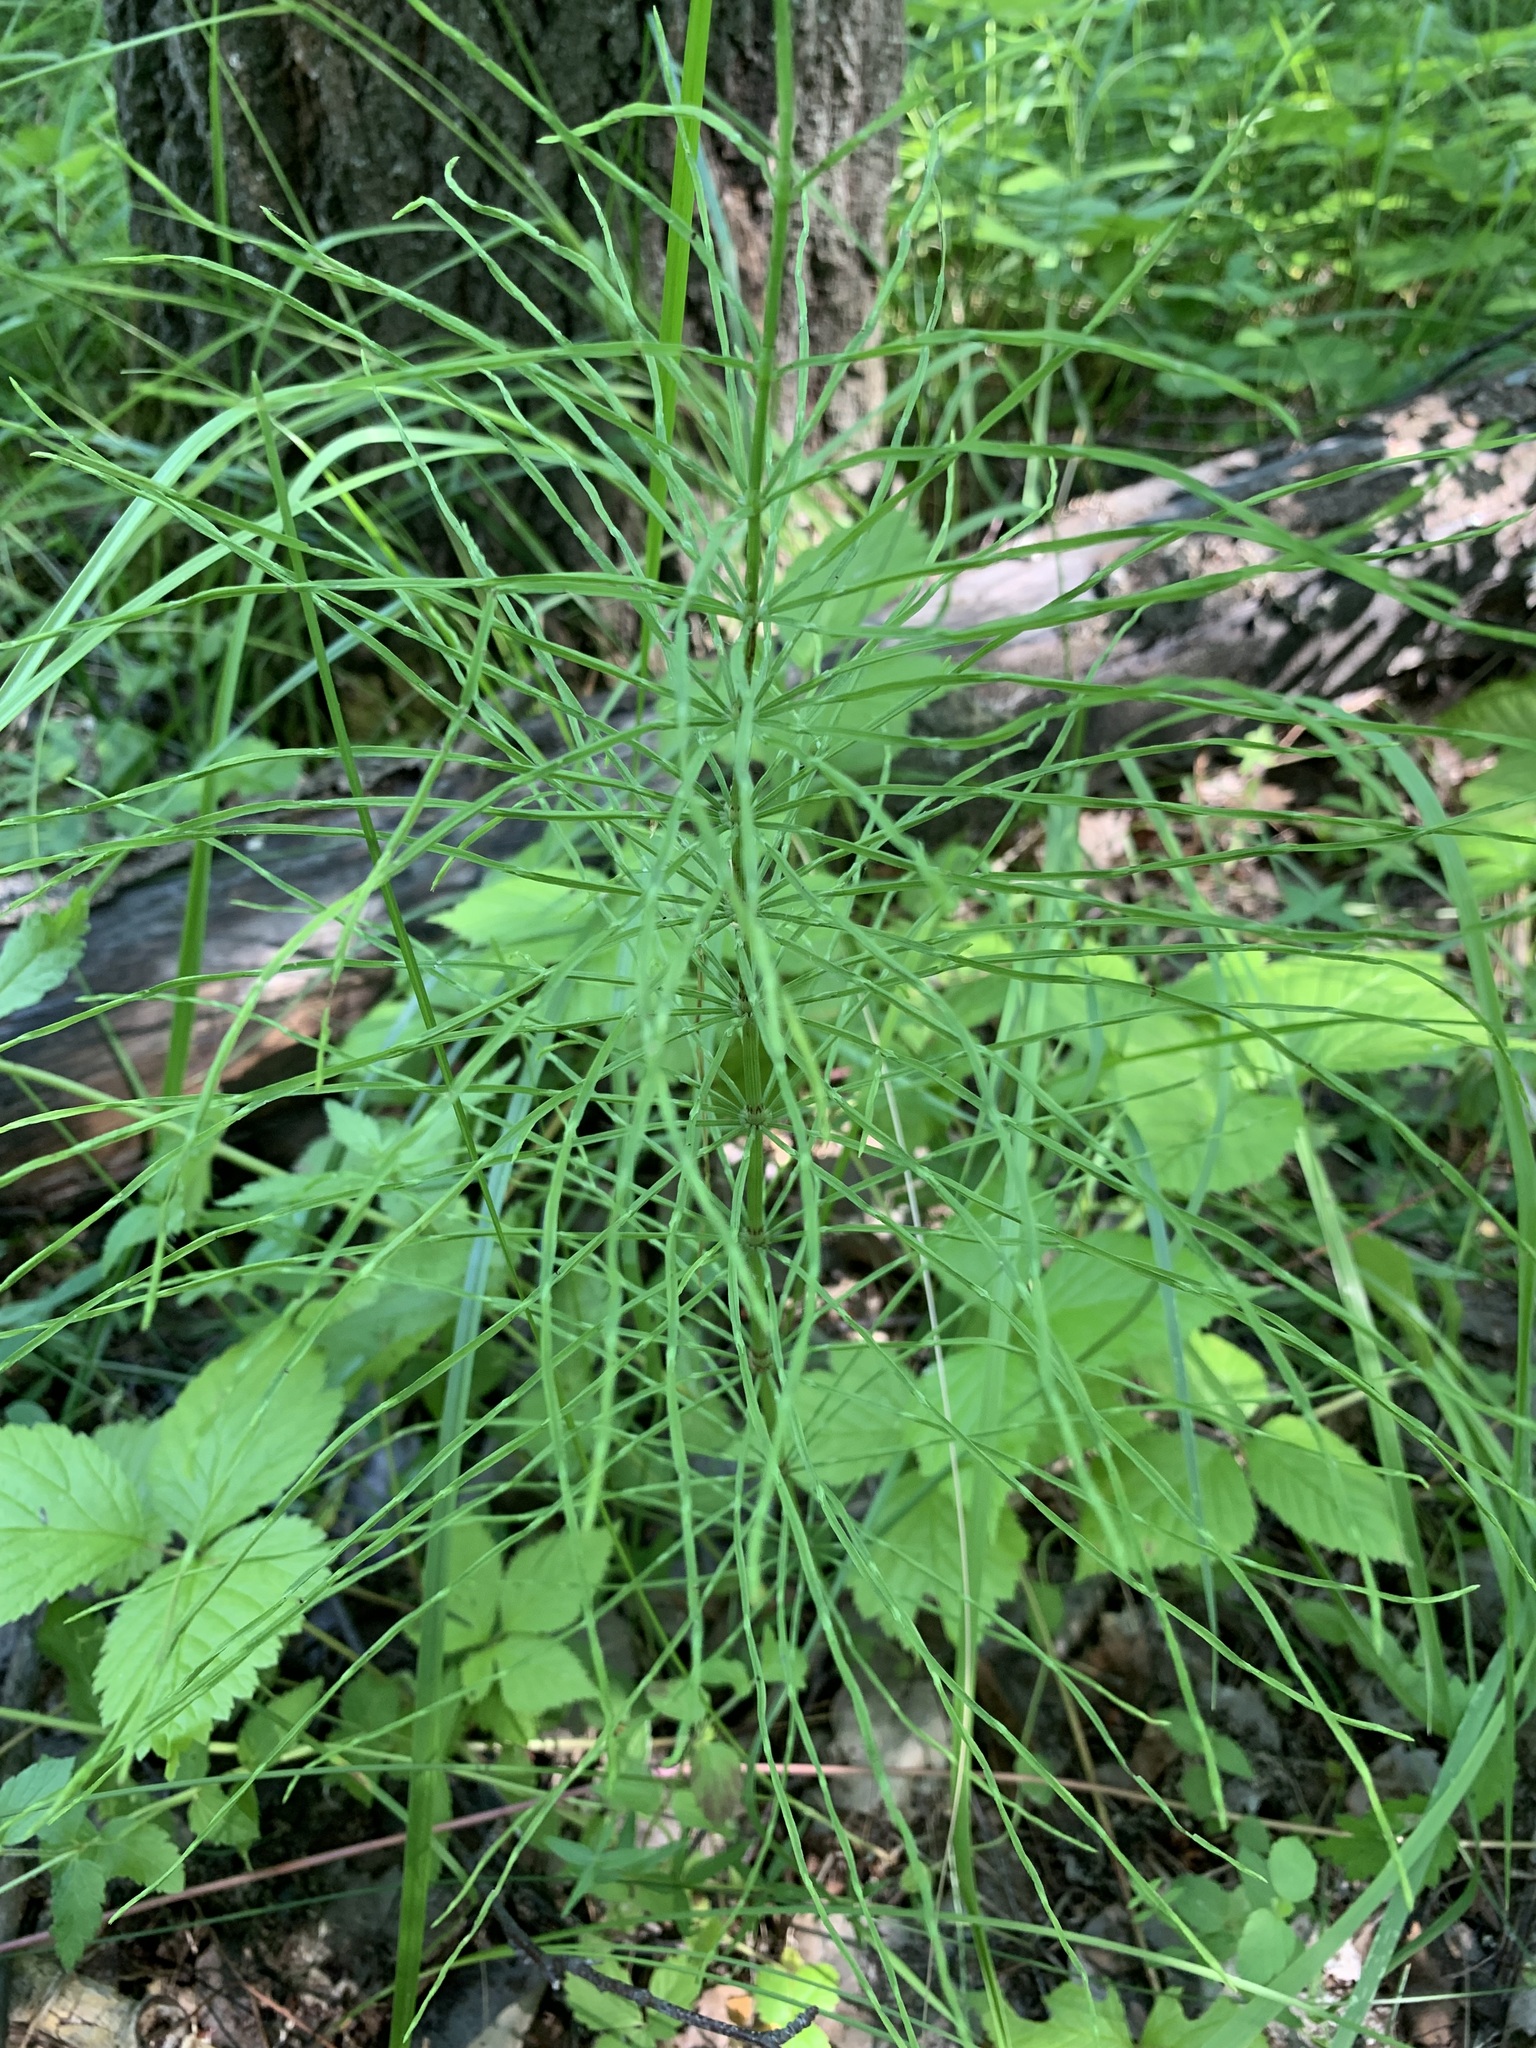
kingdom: Plantae
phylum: Tracheophyta
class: Polypodiopsida
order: Equisetales
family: Equisetaceae
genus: Equisetum
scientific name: Equisetum arvense
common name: Field horsetail
